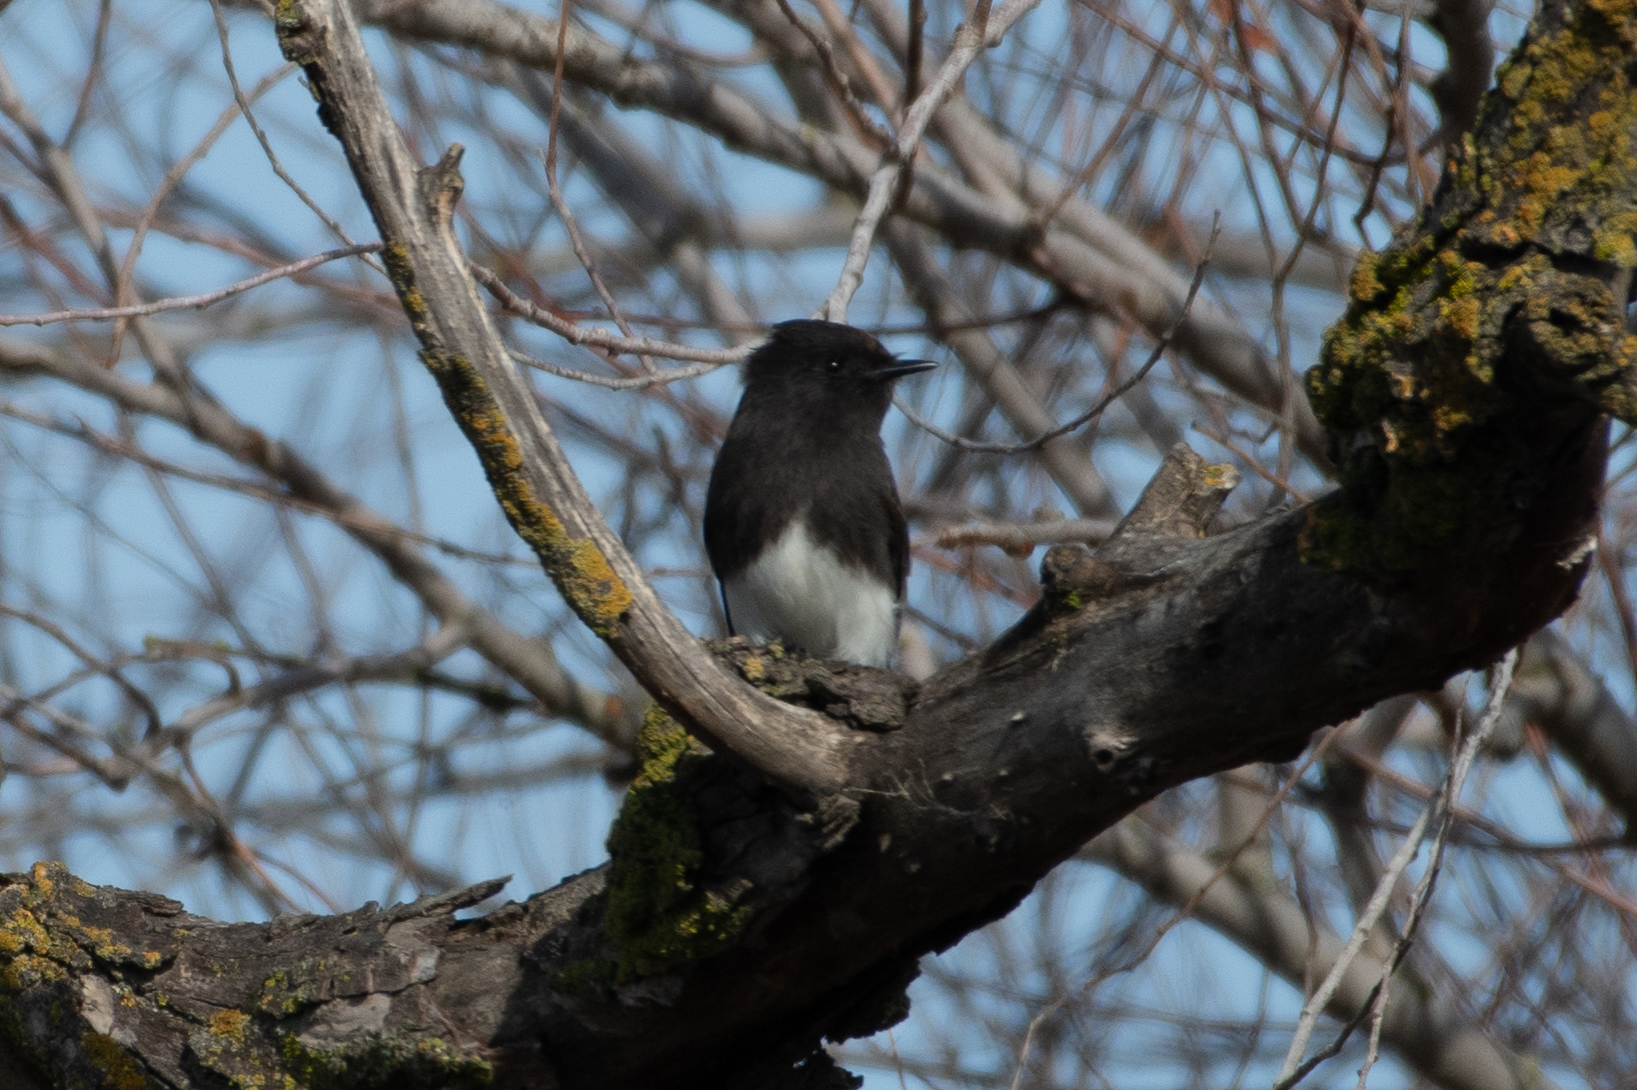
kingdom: Animalia
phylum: Chordata
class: Aves
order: Passeriformes
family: Tyrannidae
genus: Sayornis
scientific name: Sayornis nigricans
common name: Black phoebe
